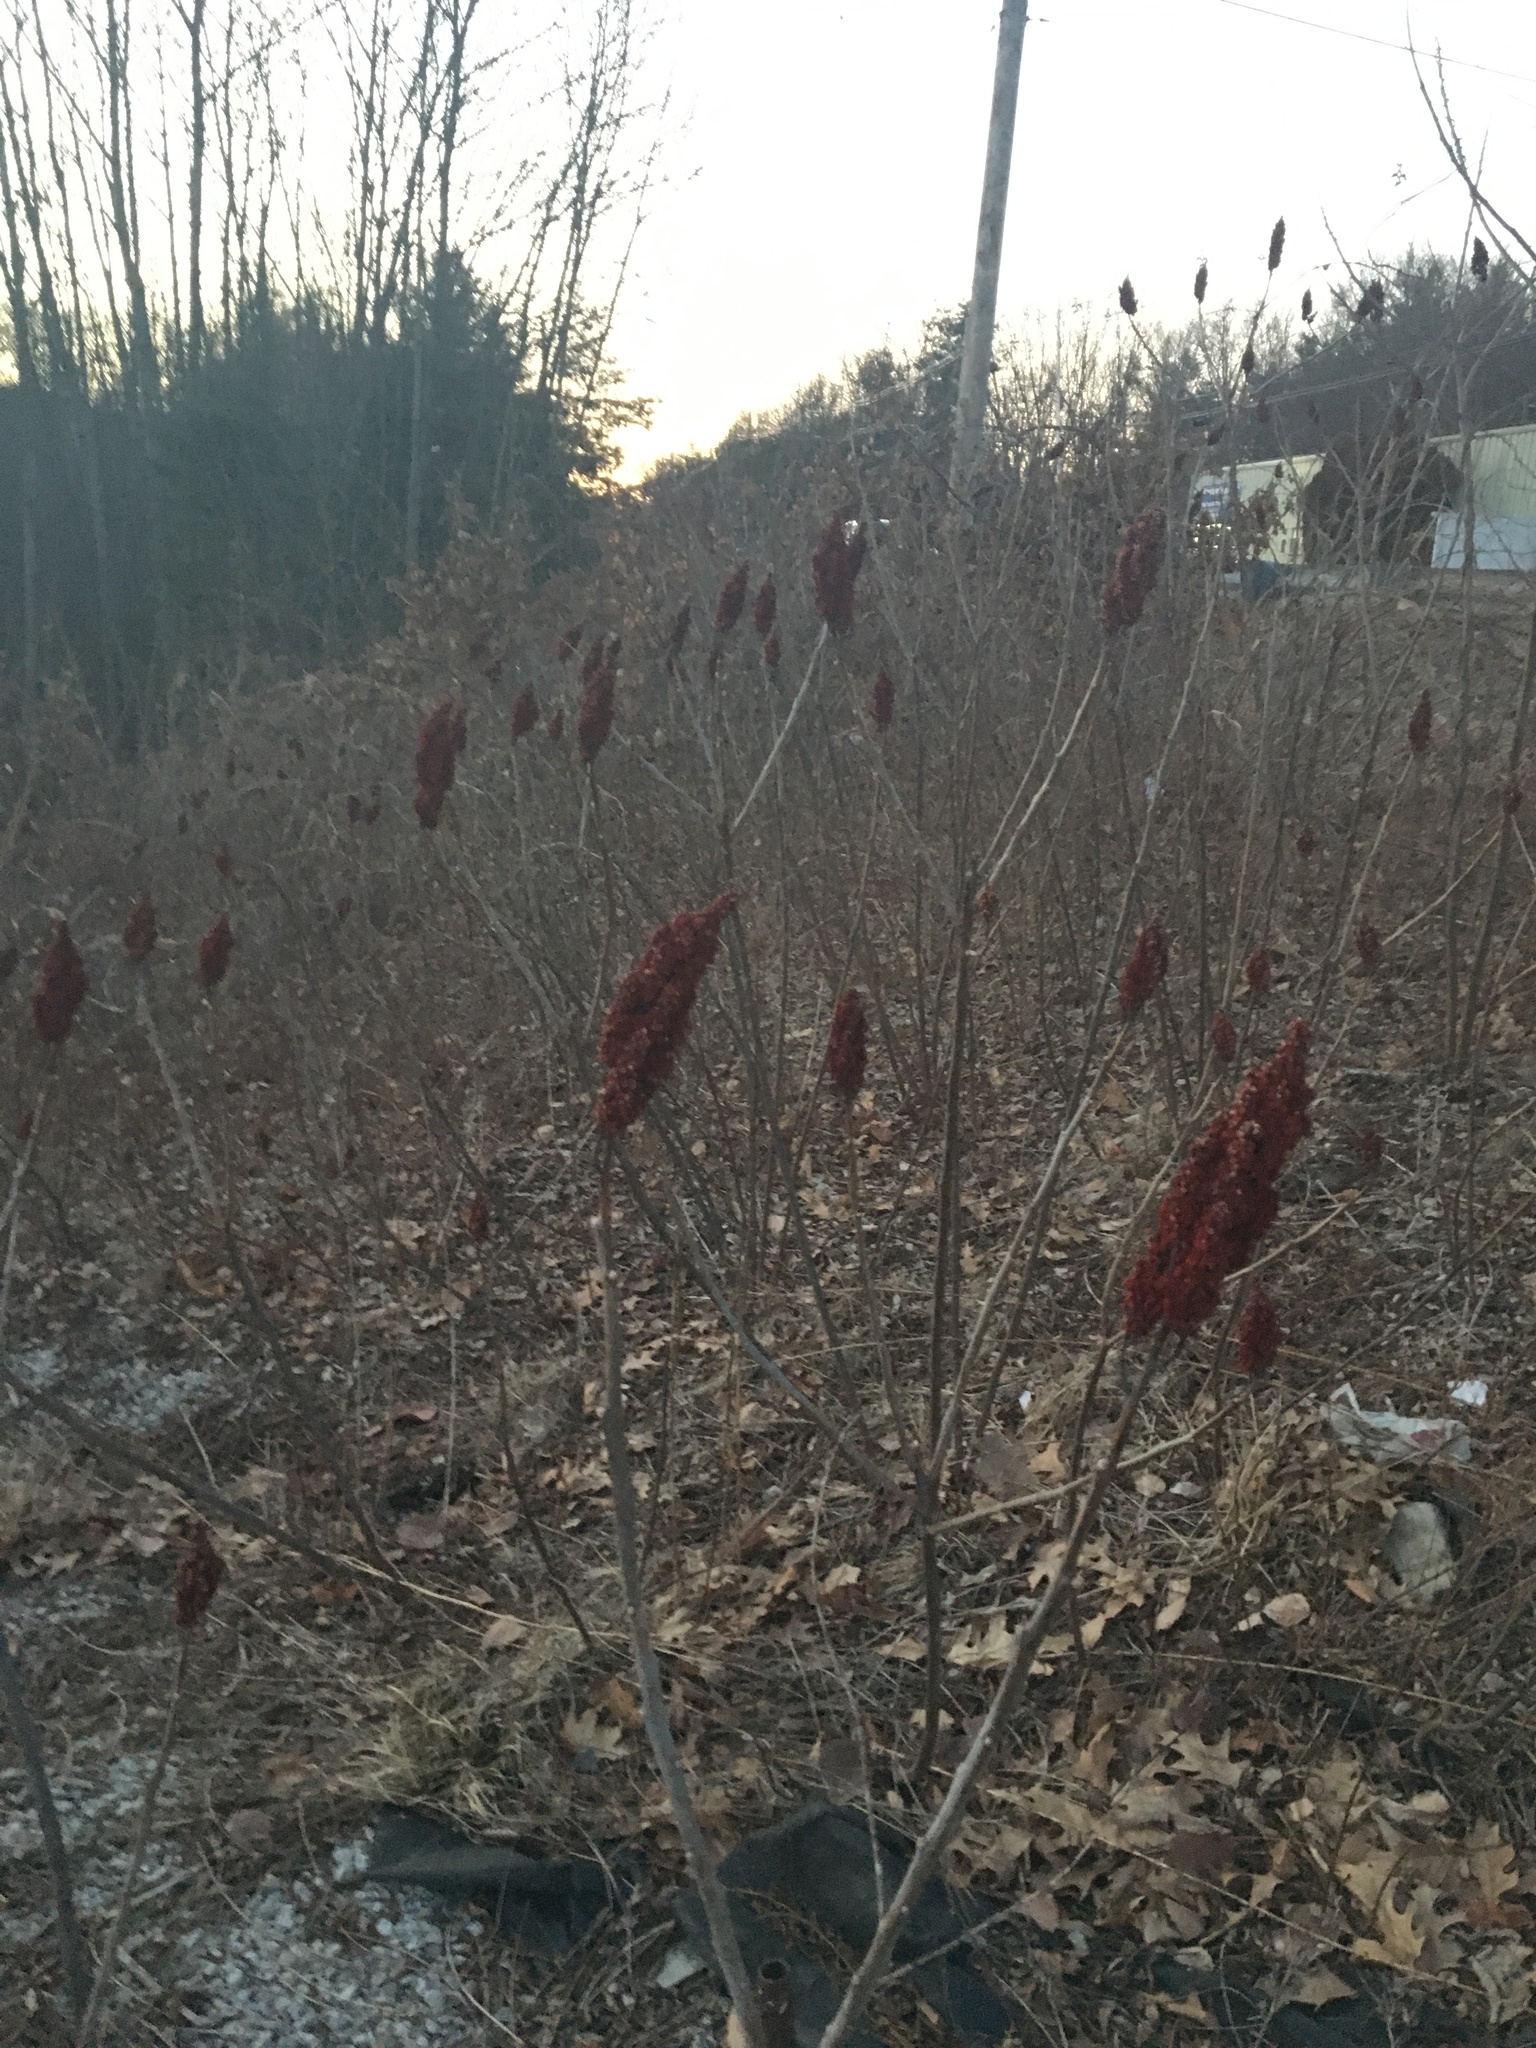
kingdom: Plantae
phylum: Tracheophyta
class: Magnoliopsida
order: Sapindales
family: Anacardiaceae
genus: Rhus
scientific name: Rhus glabra
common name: Scarlet sumac
